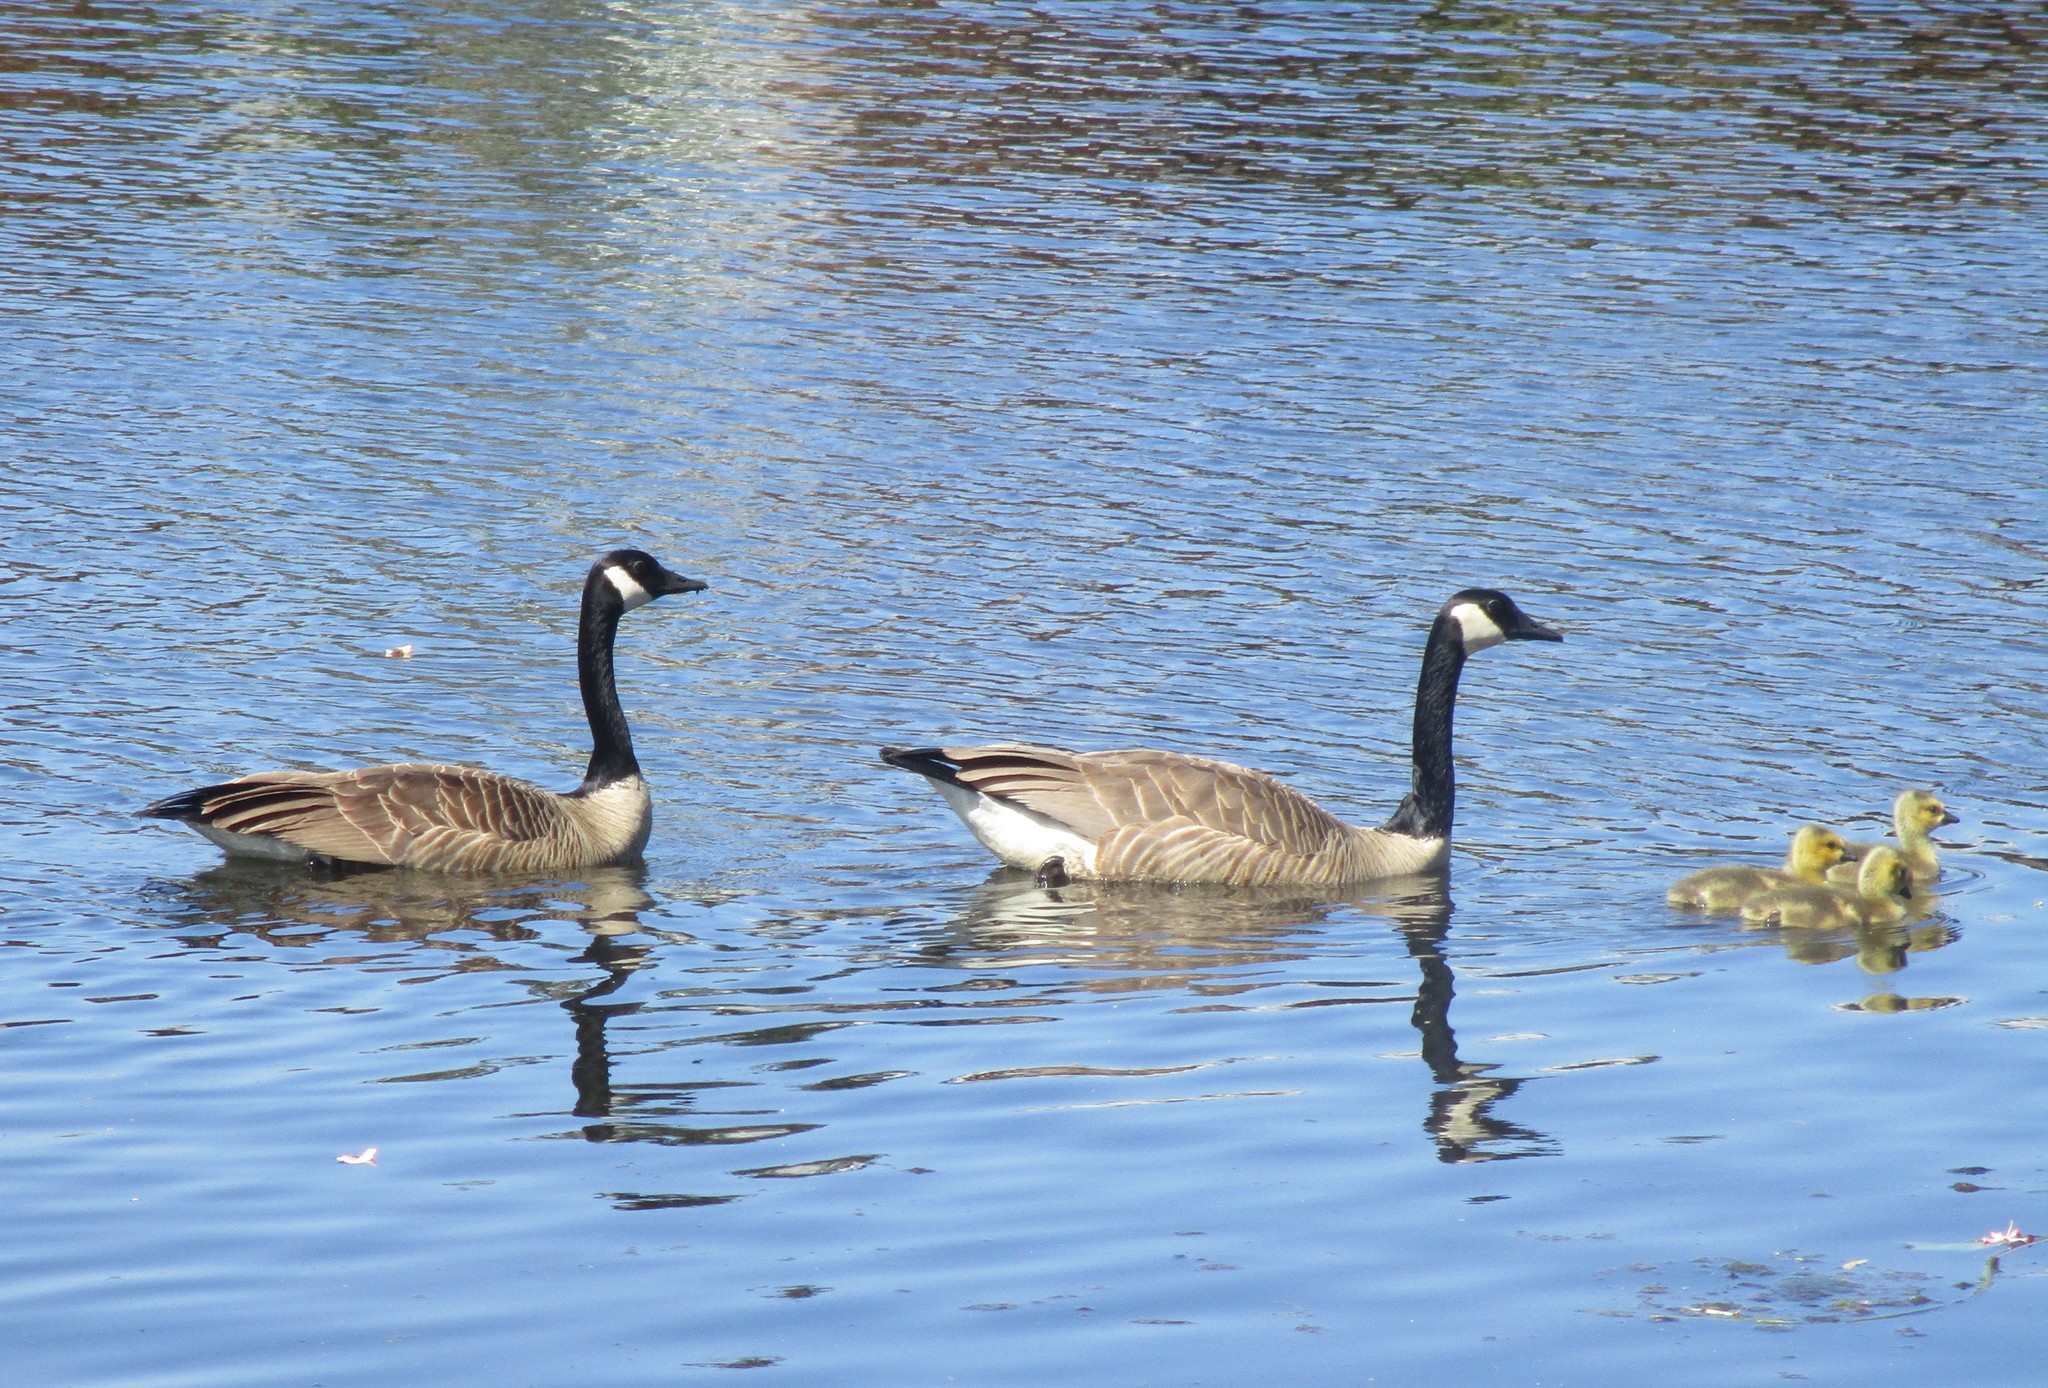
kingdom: Animalia
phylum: Chordata
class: Aves
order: Anseriformes
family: Anatidae
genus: Branta
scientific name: Branta canadensis
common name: Canada goose
